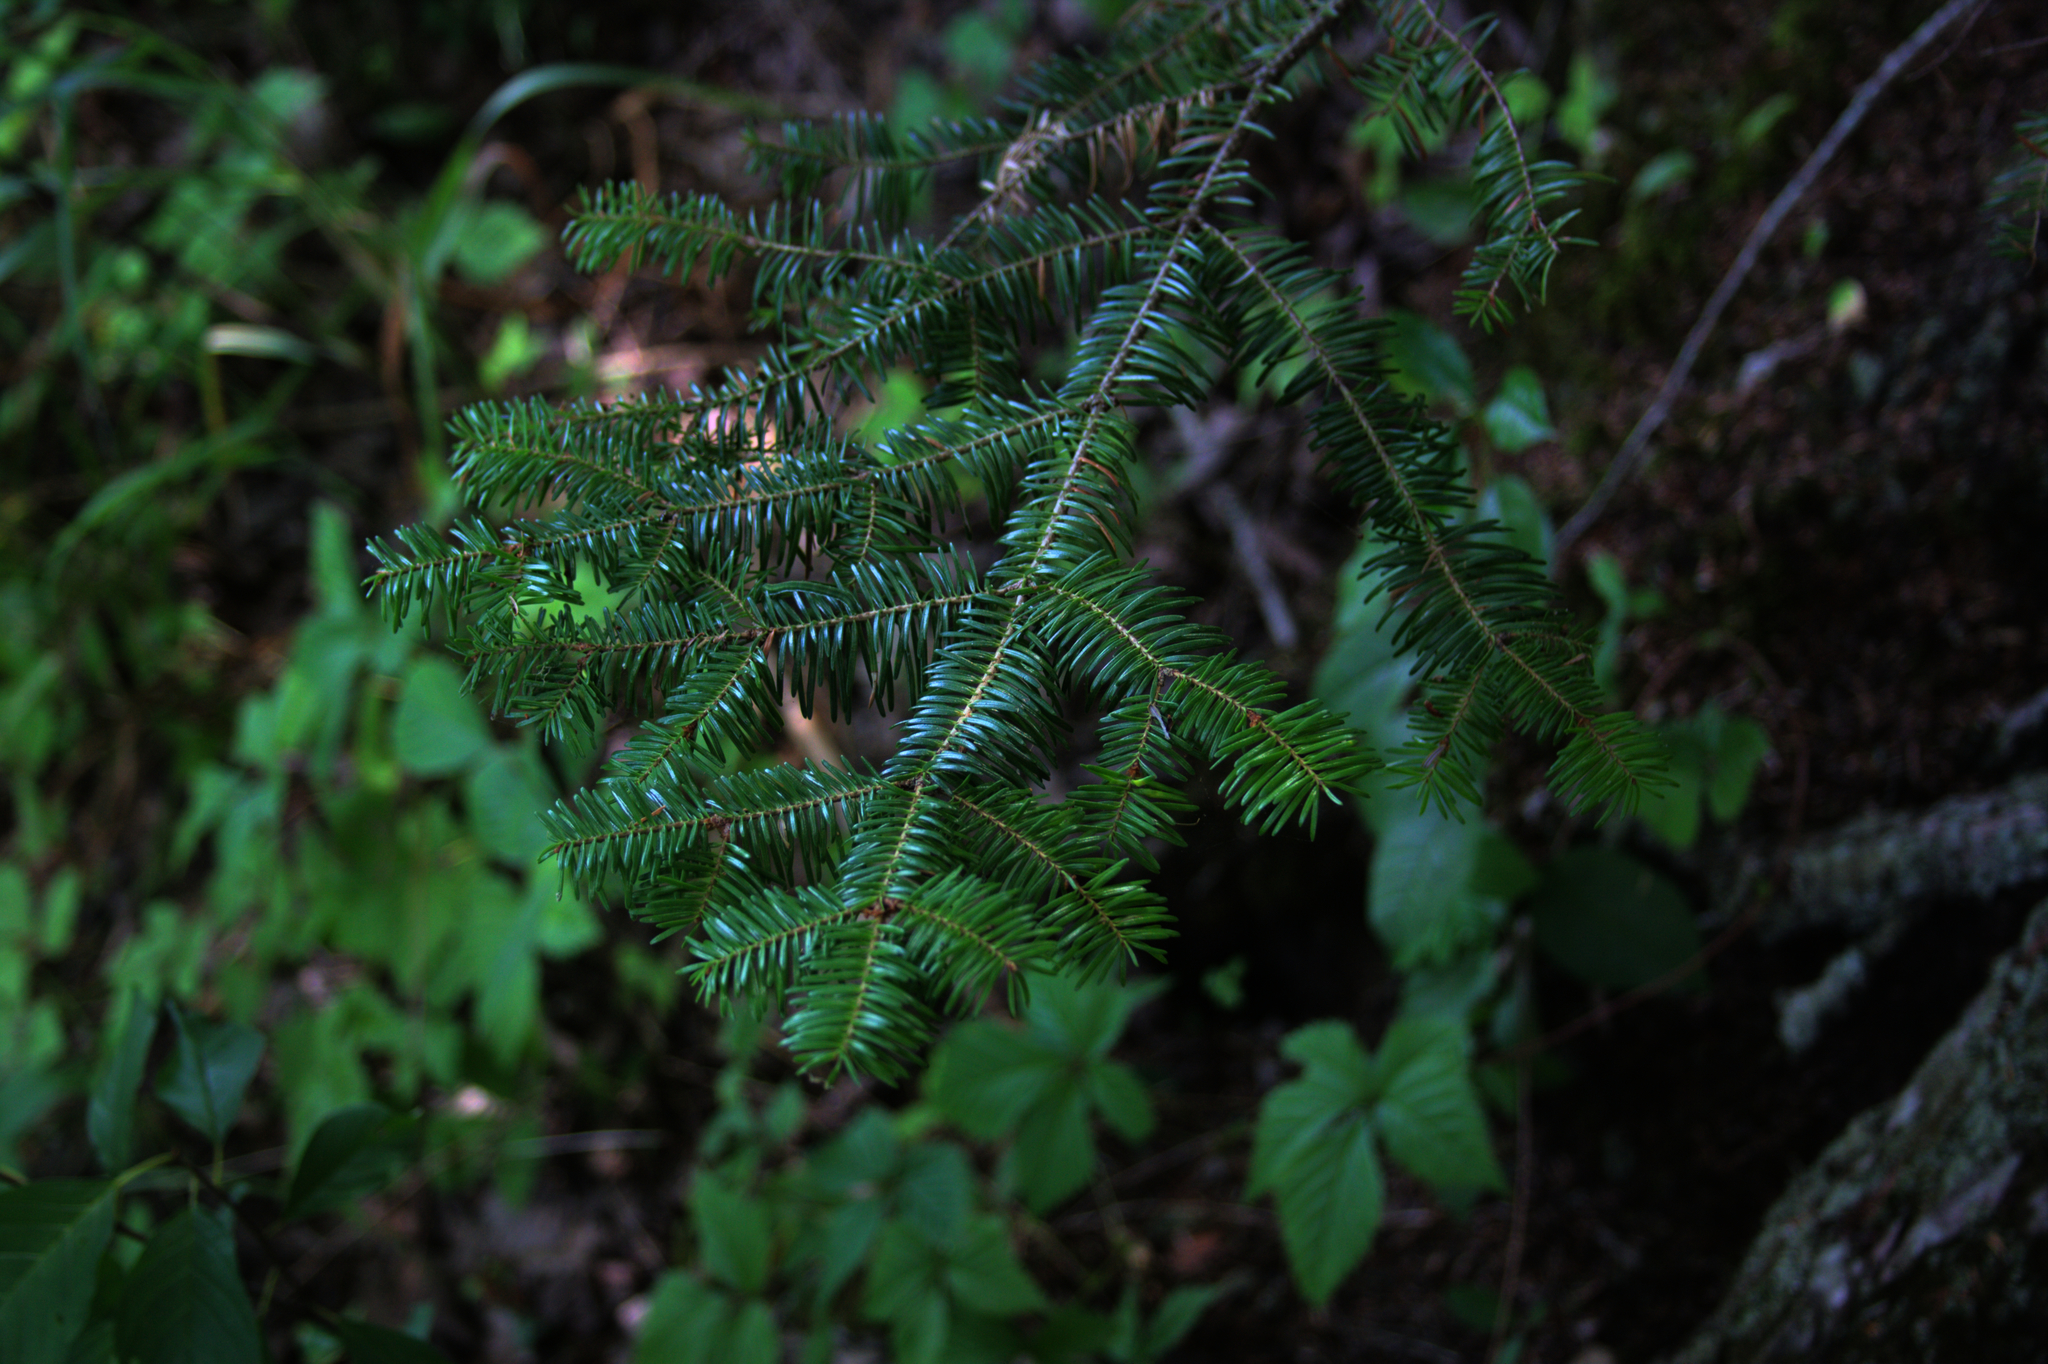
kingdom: Plantae
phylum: Tracheophyta
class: Pinopsida
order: Pinales
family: Pinaceae
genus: Abies
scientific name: Abies balsamea
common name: Balsam fir
